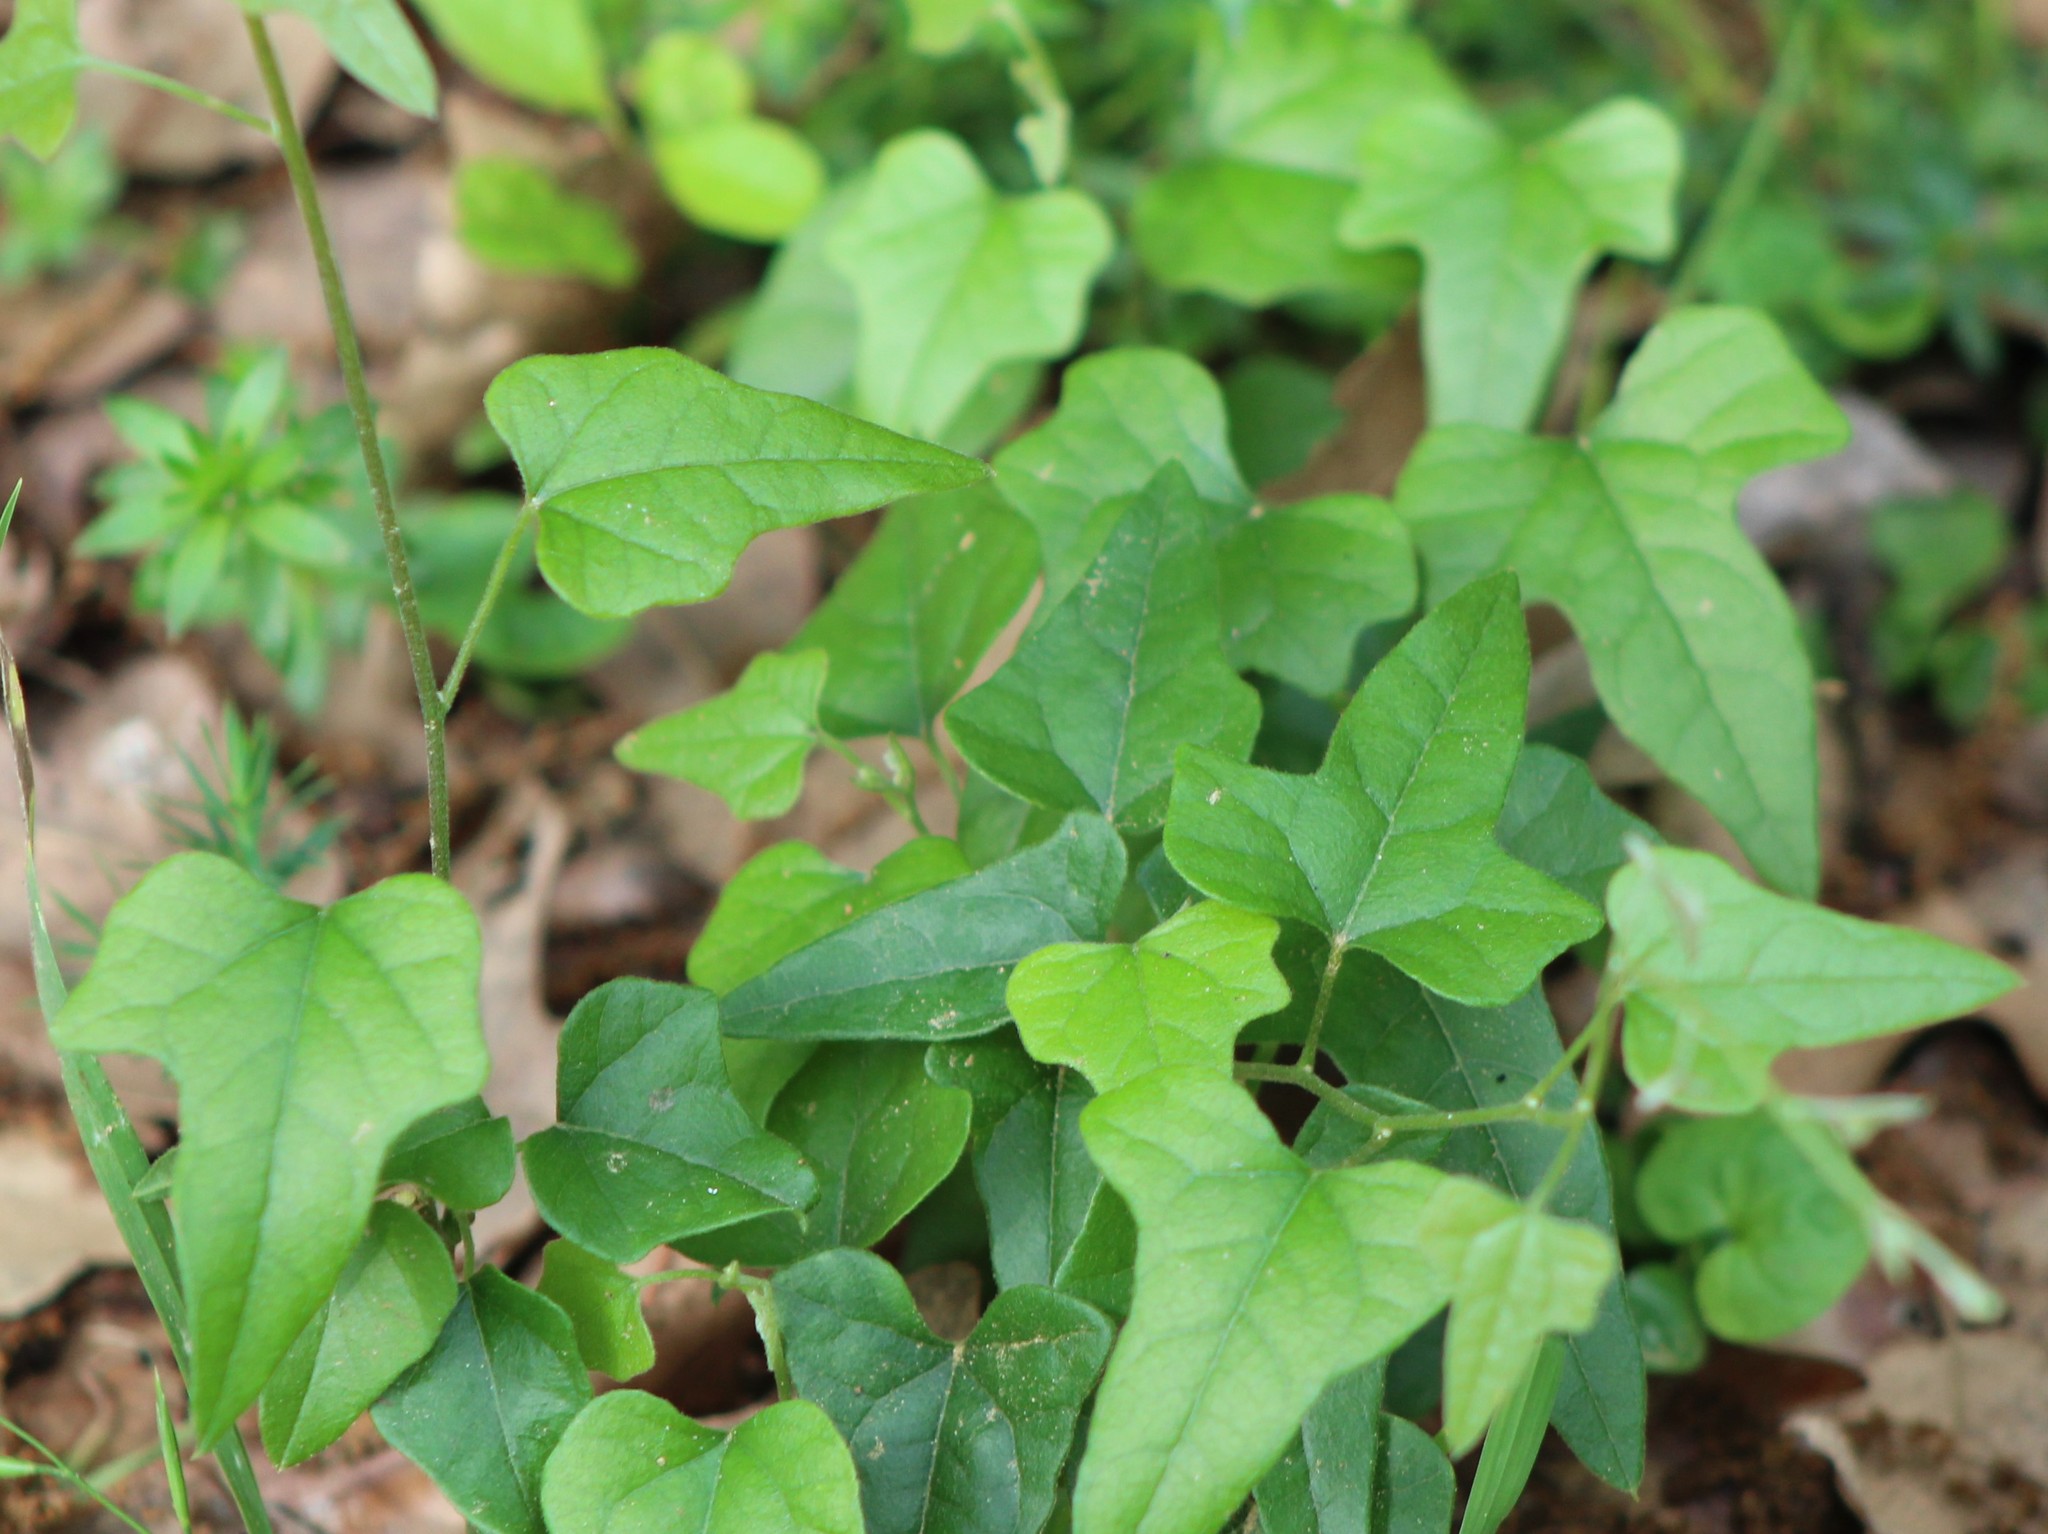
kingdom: Plantae
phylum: Tracheophyta
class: Magnoliopsida
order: Ranunculales
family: Menispermaceae
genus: Cocculus
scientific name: Cocculus carolinus
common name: Carolina moonseed
